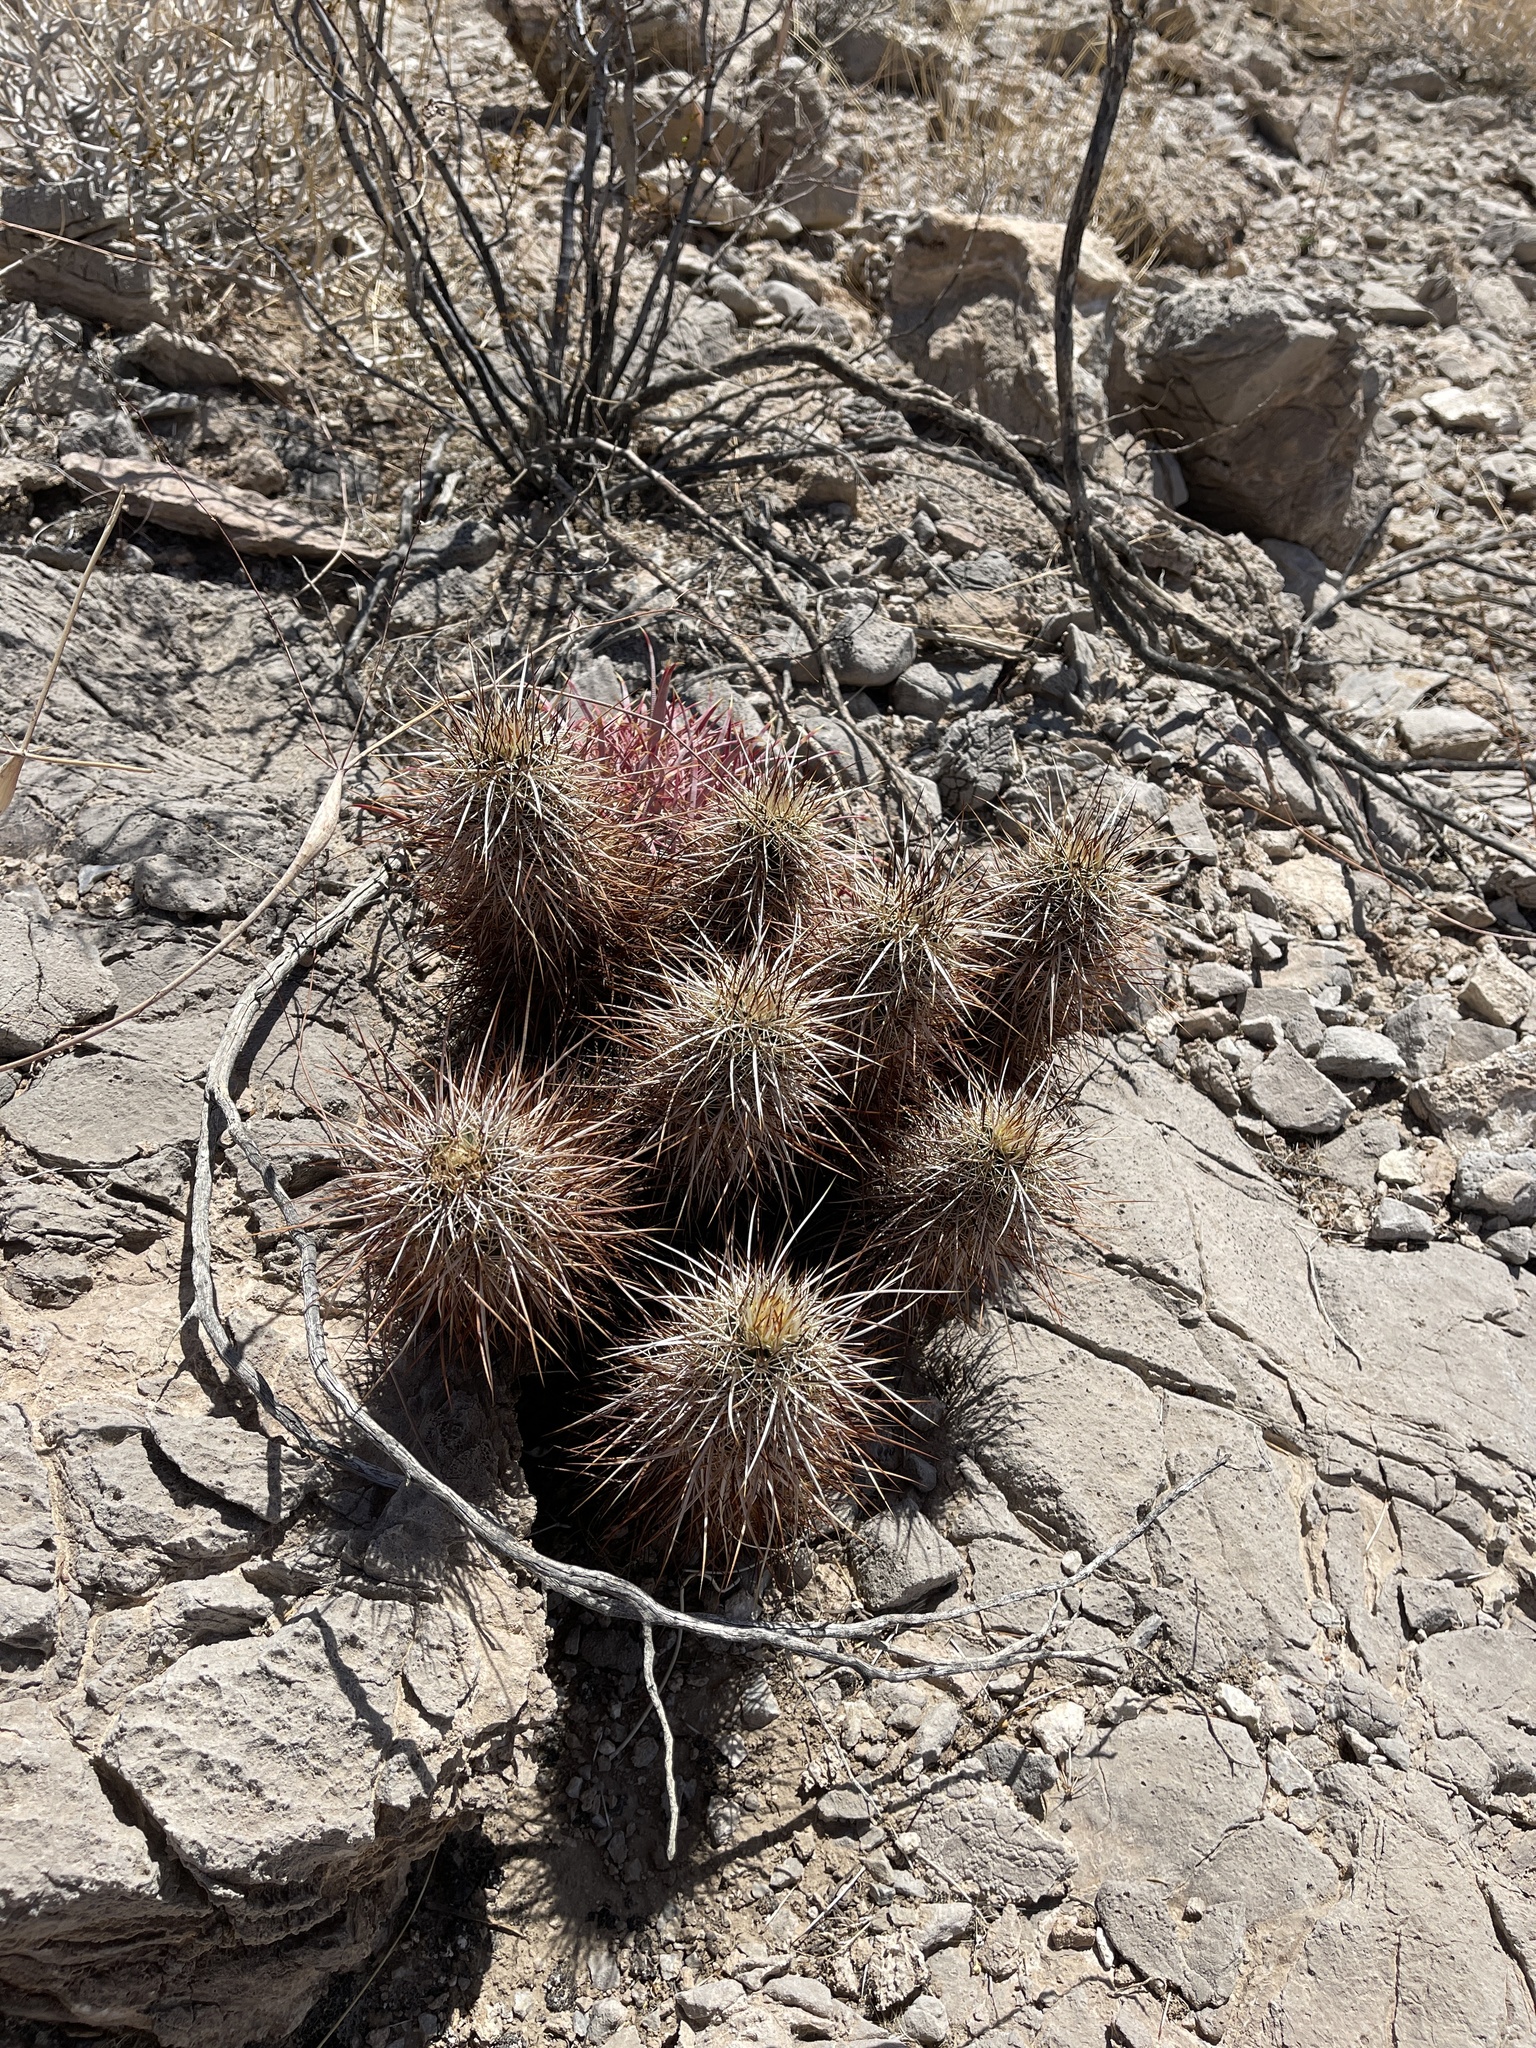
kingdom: Plantae
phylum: Tracheophyta
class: Magnoliopsida
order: Caryophyllales
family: Cactaceae
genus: Echinocereus
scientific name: Echinocereus engelmannii
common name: Engelmann's hedgehog cactus
